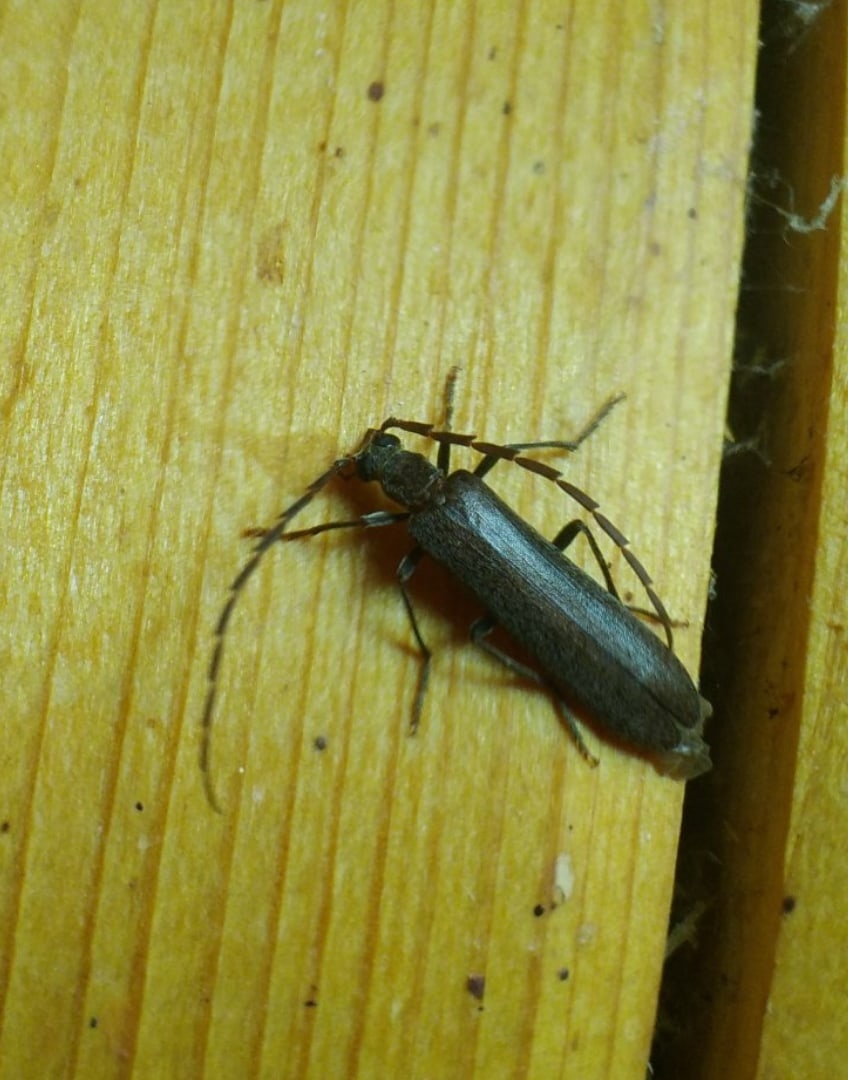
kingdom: Animalia
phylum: Arthropoda
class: Insecta
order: Coleoptera
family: Cerambycidae
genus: Vesperus
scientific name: Vesperus luridus
